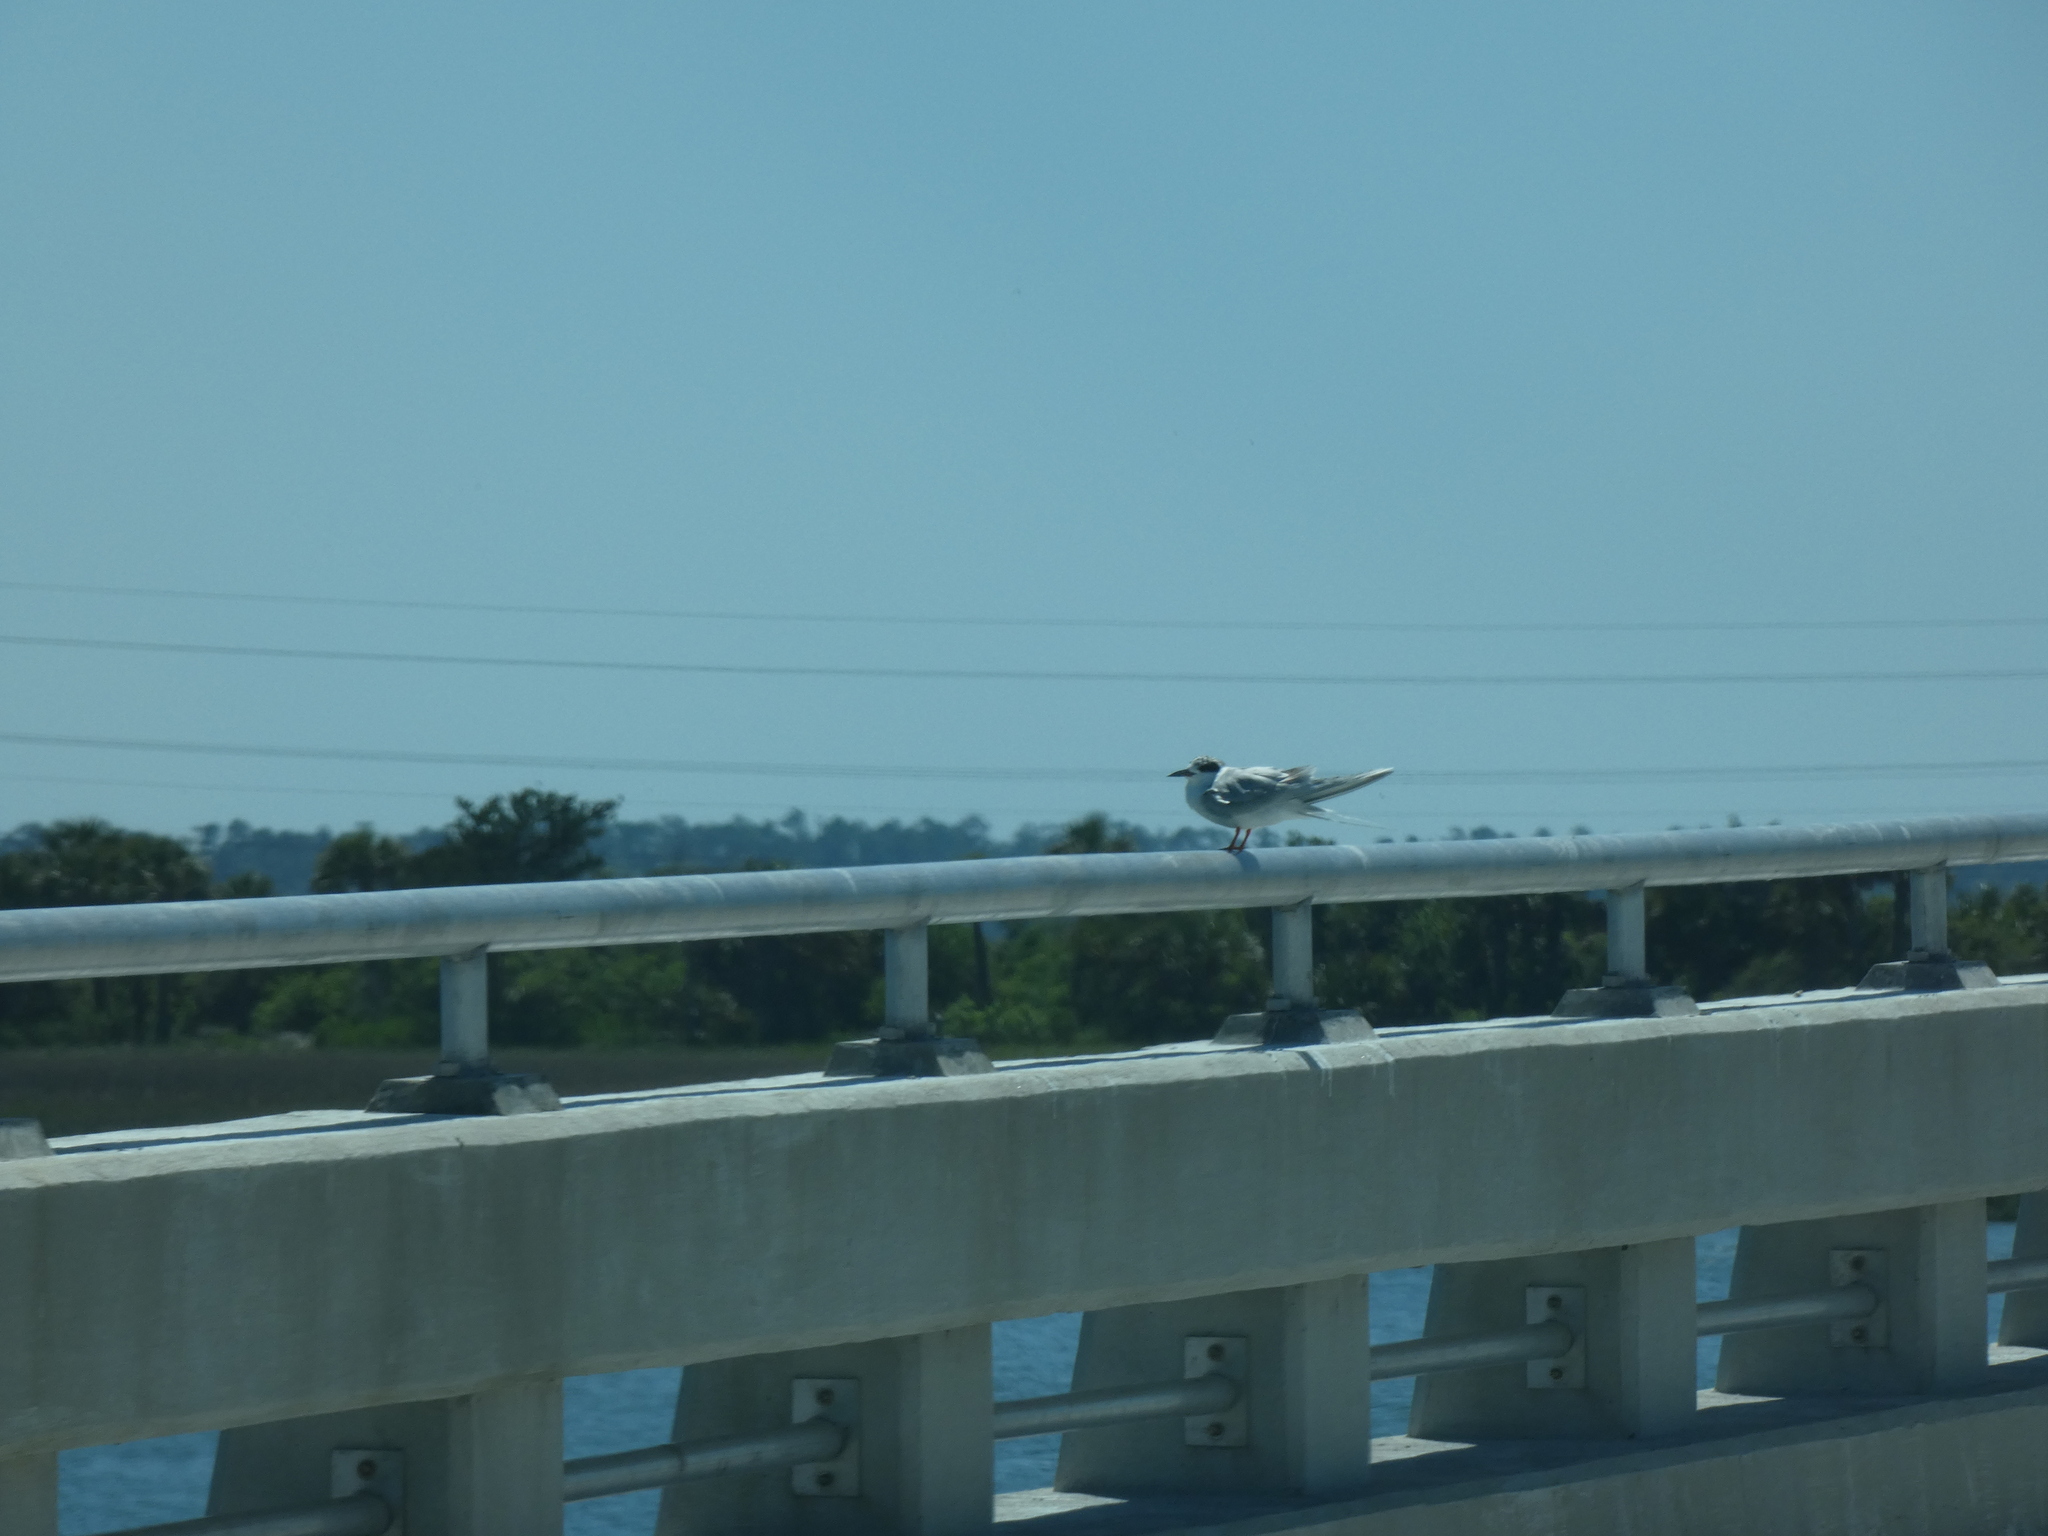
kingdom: Animalia
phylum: Chordata
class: Aves
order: Charadriiformes
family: Laridae
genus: Sterna
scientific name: Sterna forsteri
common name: Forster's tern
